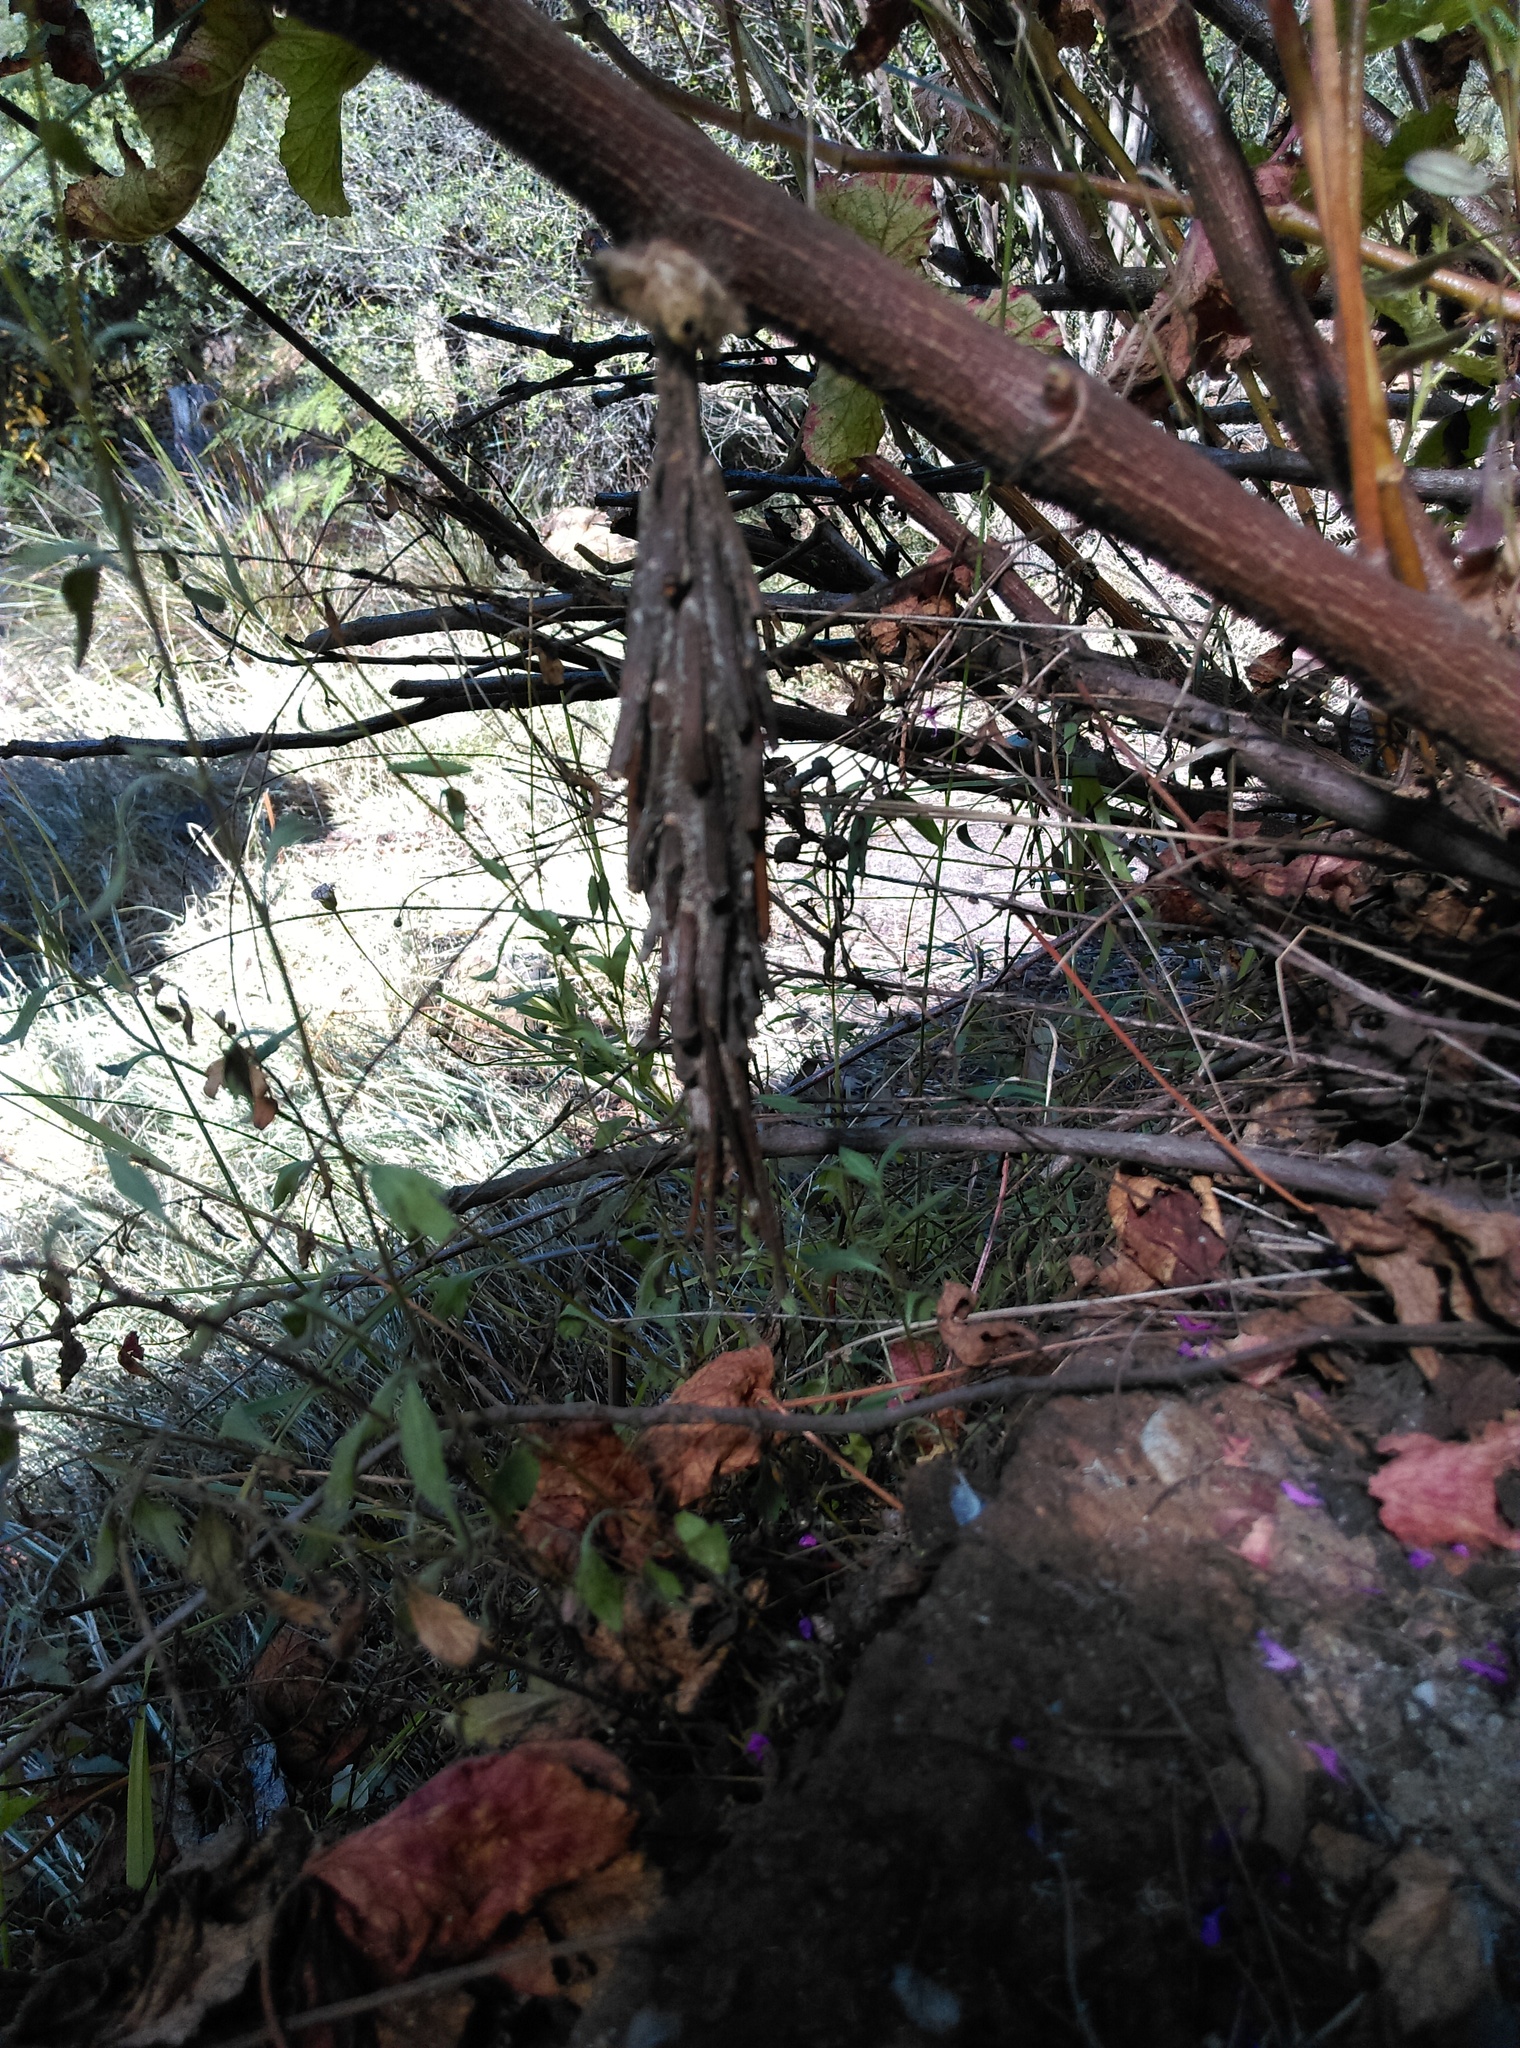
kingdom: Animalia
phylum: Arthropoda
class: Insecta
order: Lepidoptera
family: Psychidae
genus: Metura
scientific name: Metura elongatus
